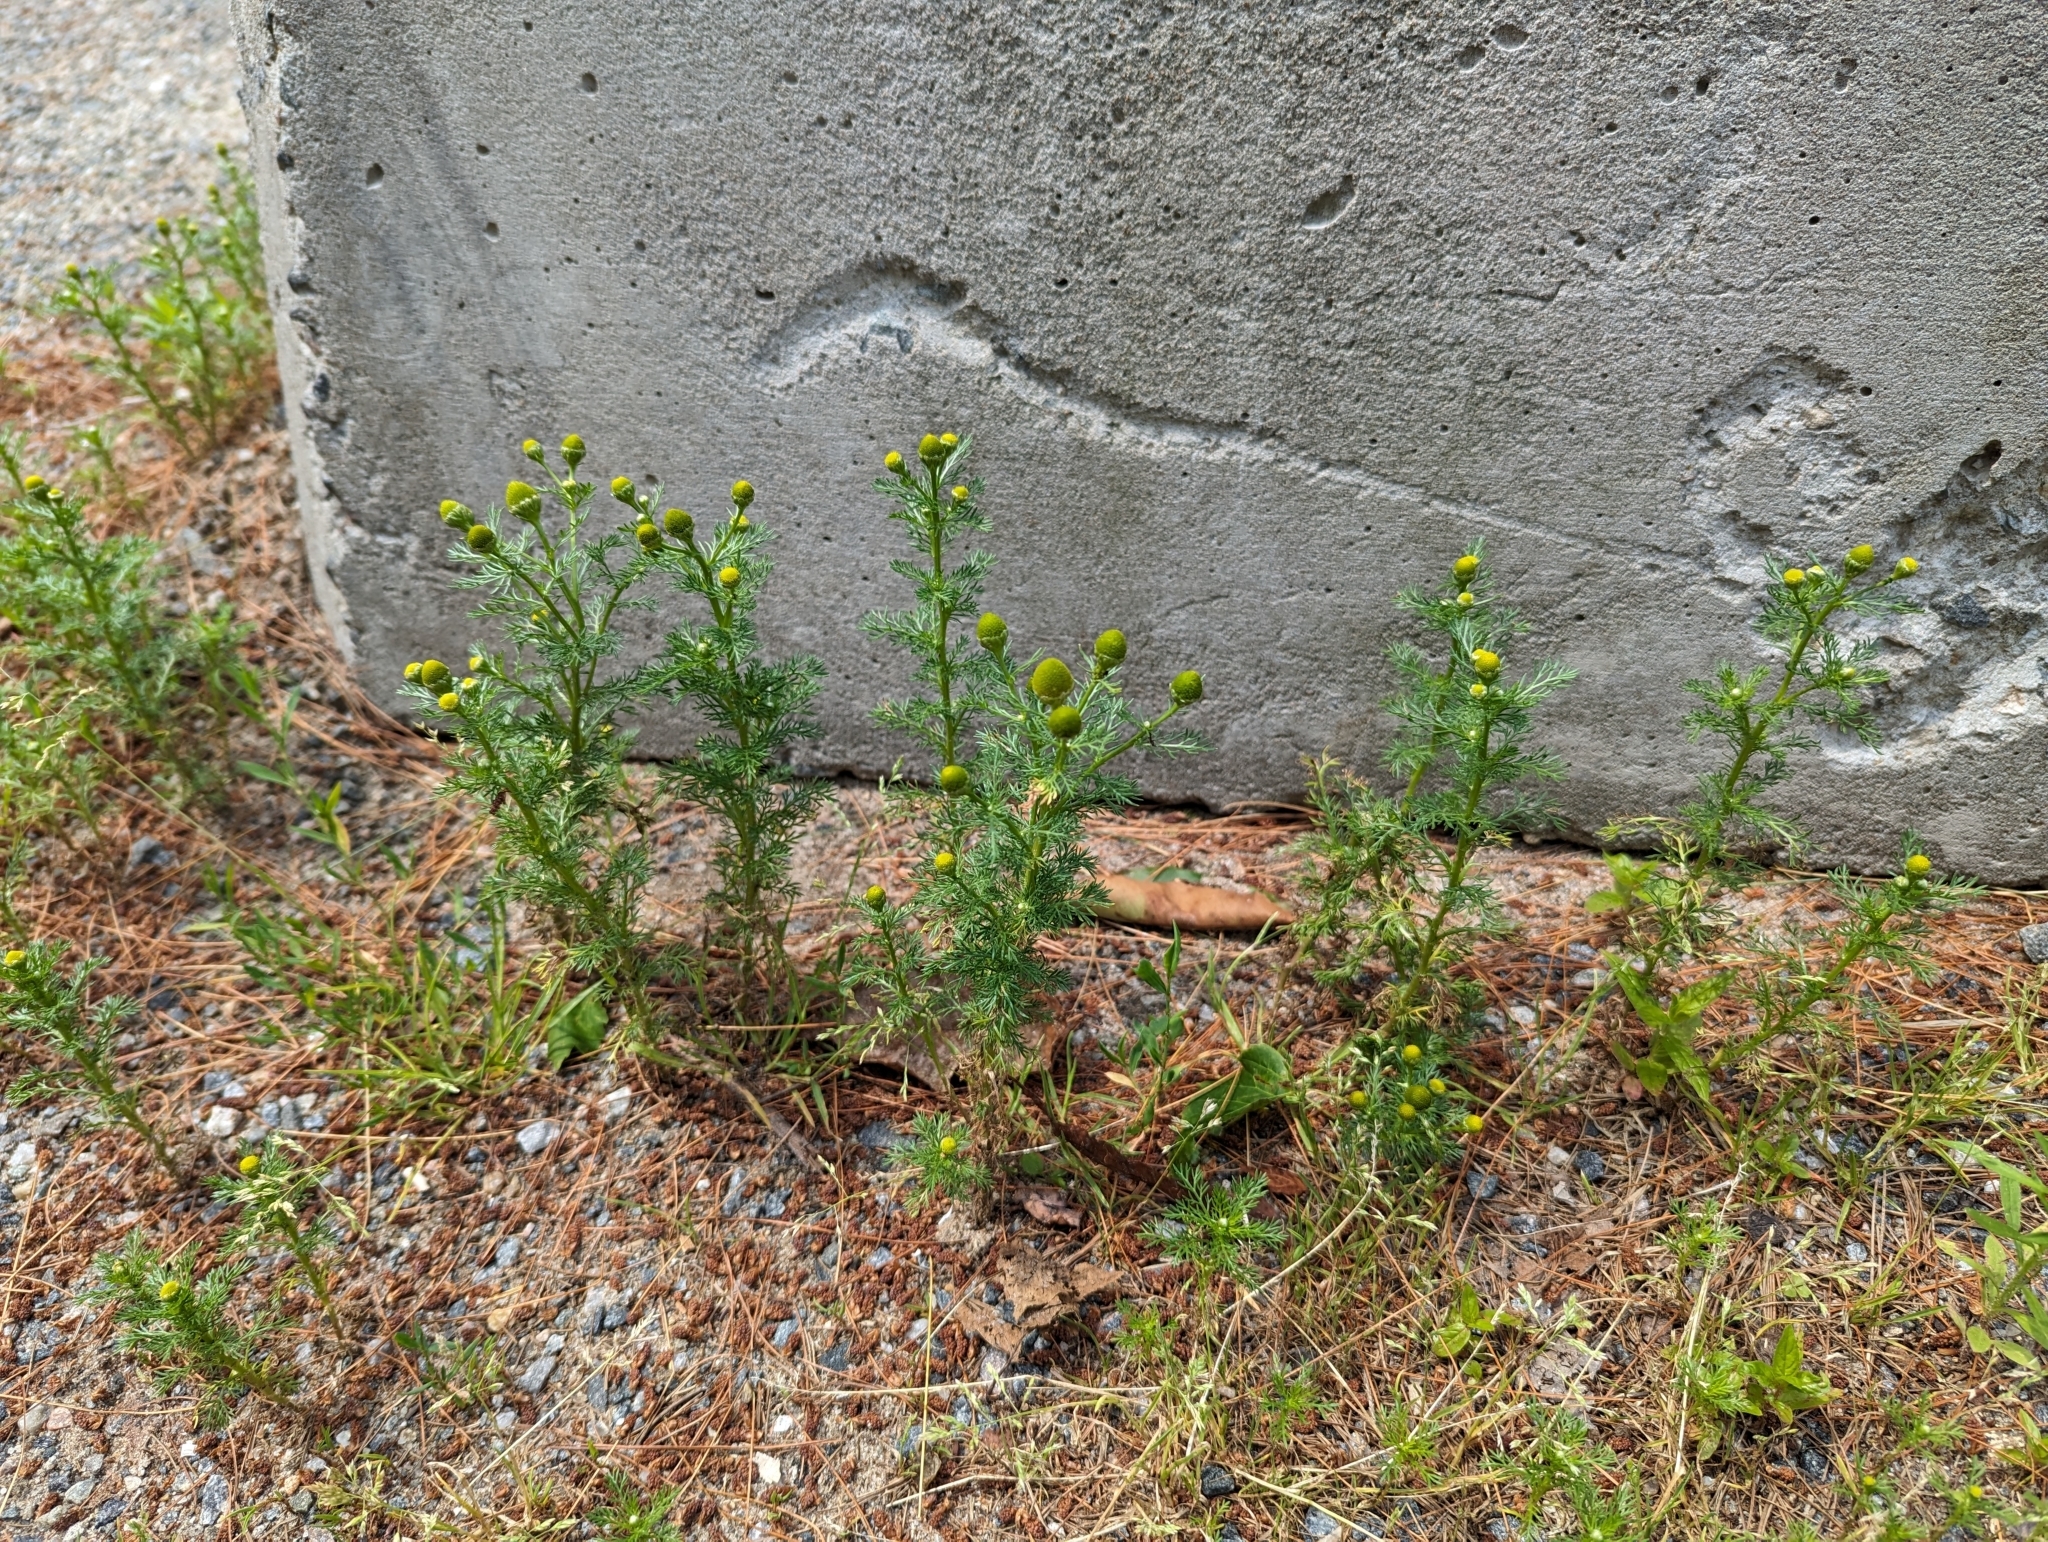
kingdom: Plantae
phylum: Tracheophyta
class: Magnoliopsida
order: Asterales
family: Asteraceae
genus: Matricaria
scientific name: Matricaria discoidea
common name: Disc mayweed
